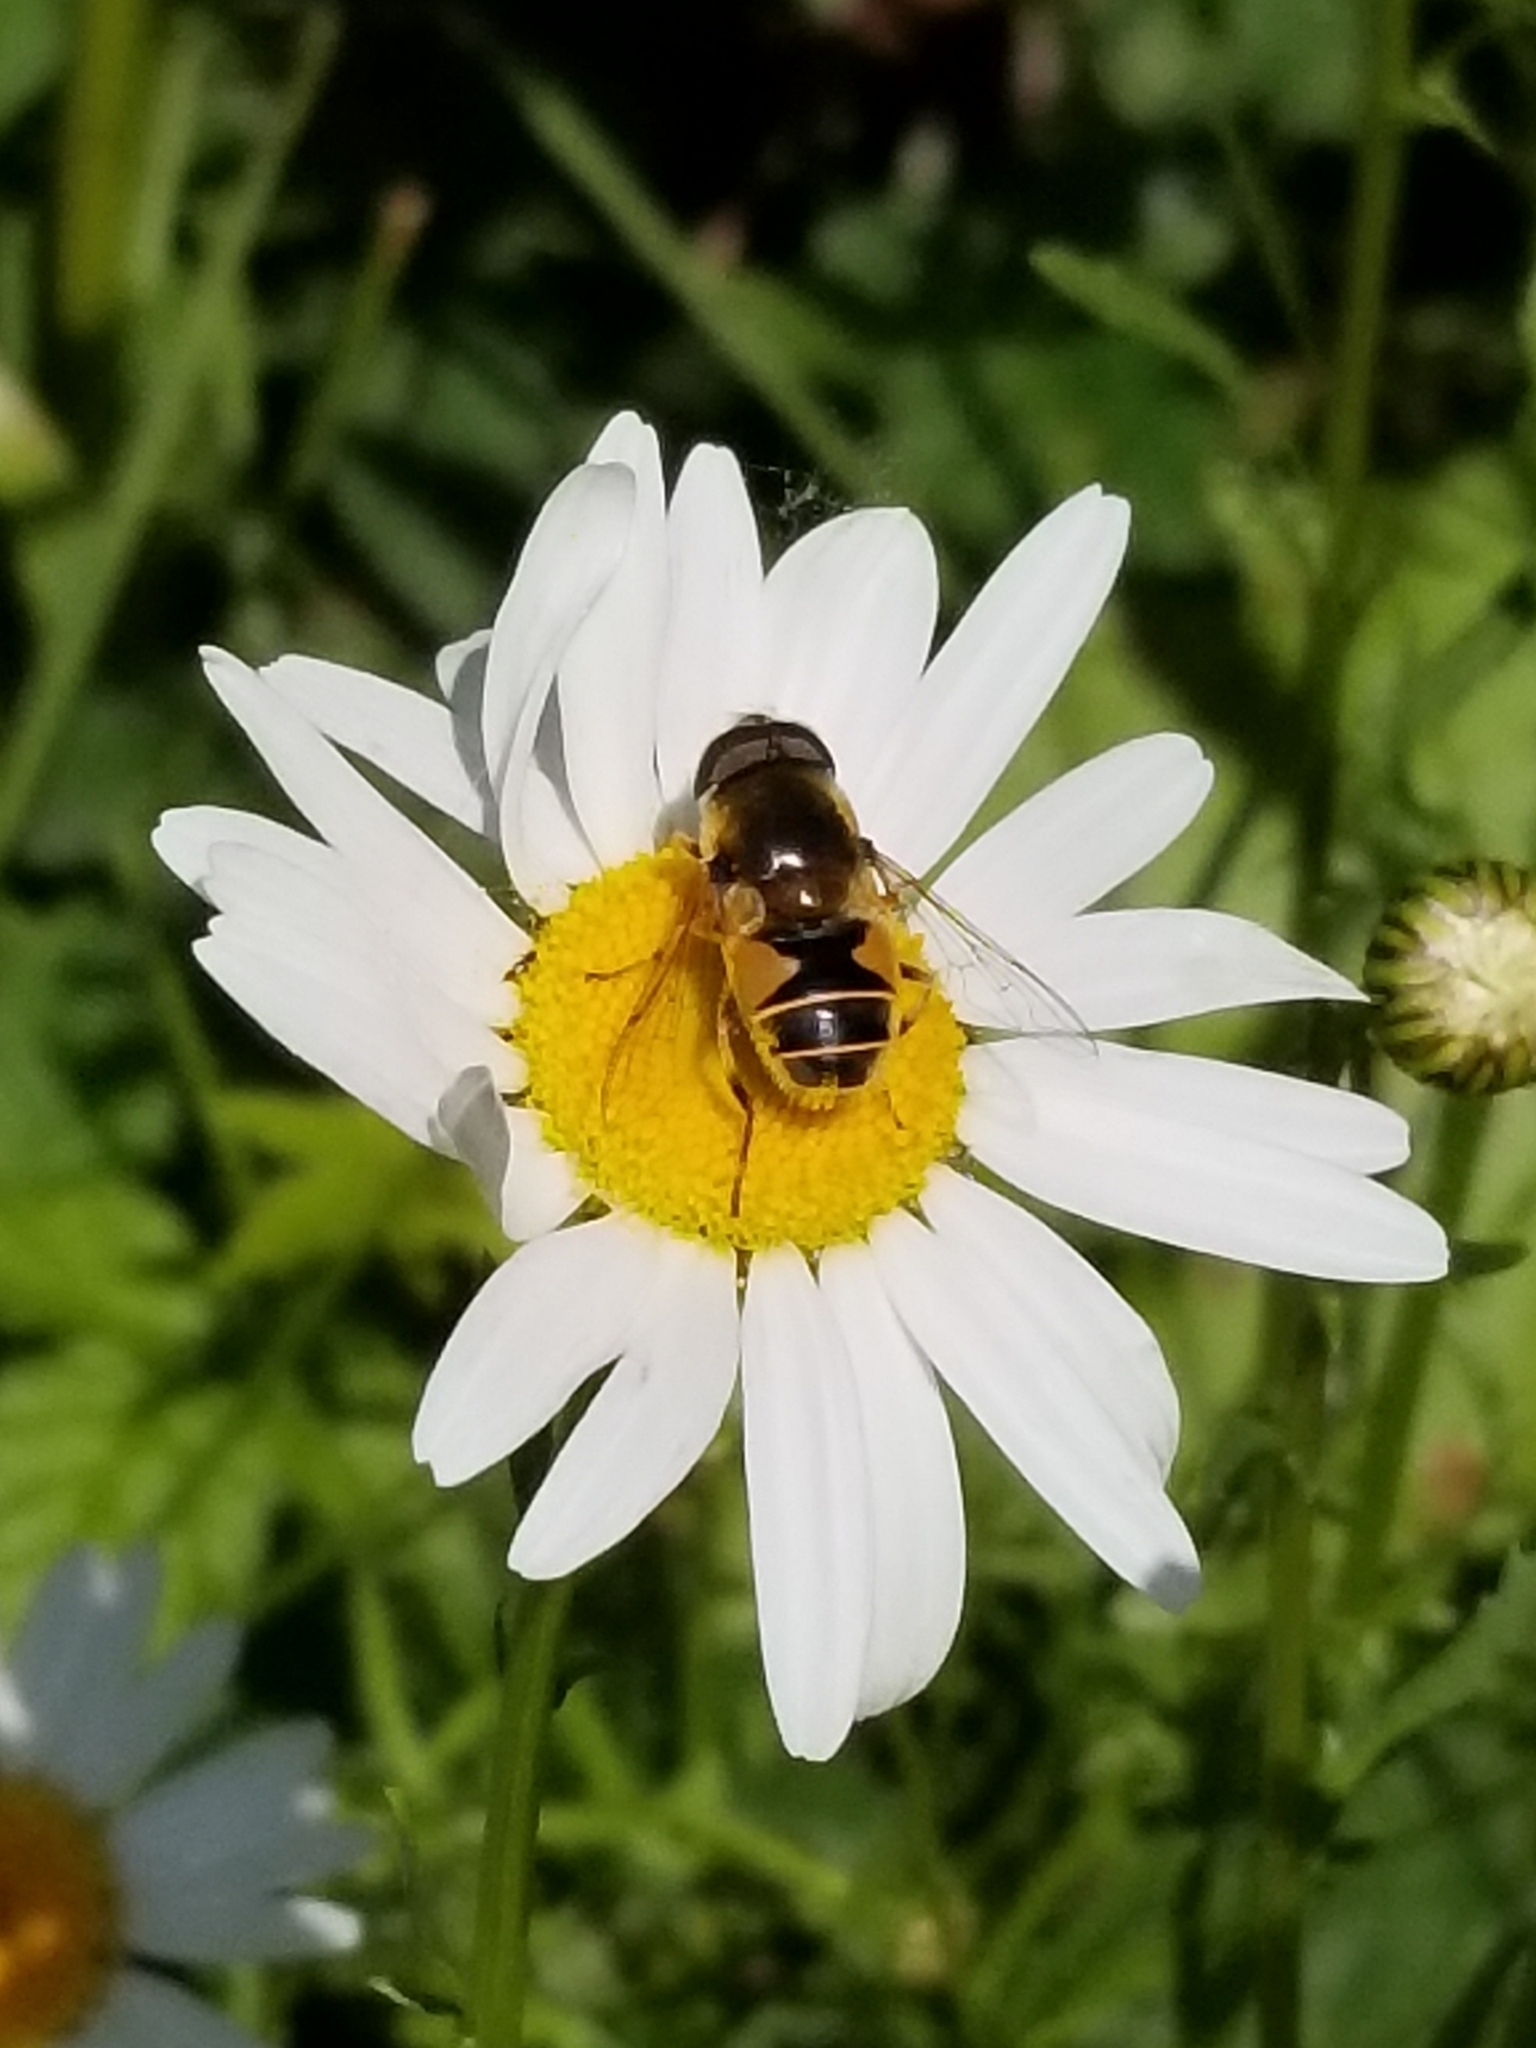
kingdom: Animalia
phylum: Arthropoda
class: Insecta
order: Diptera
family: Syrphidae
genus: Eristalis
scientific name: Eristalis hirta
